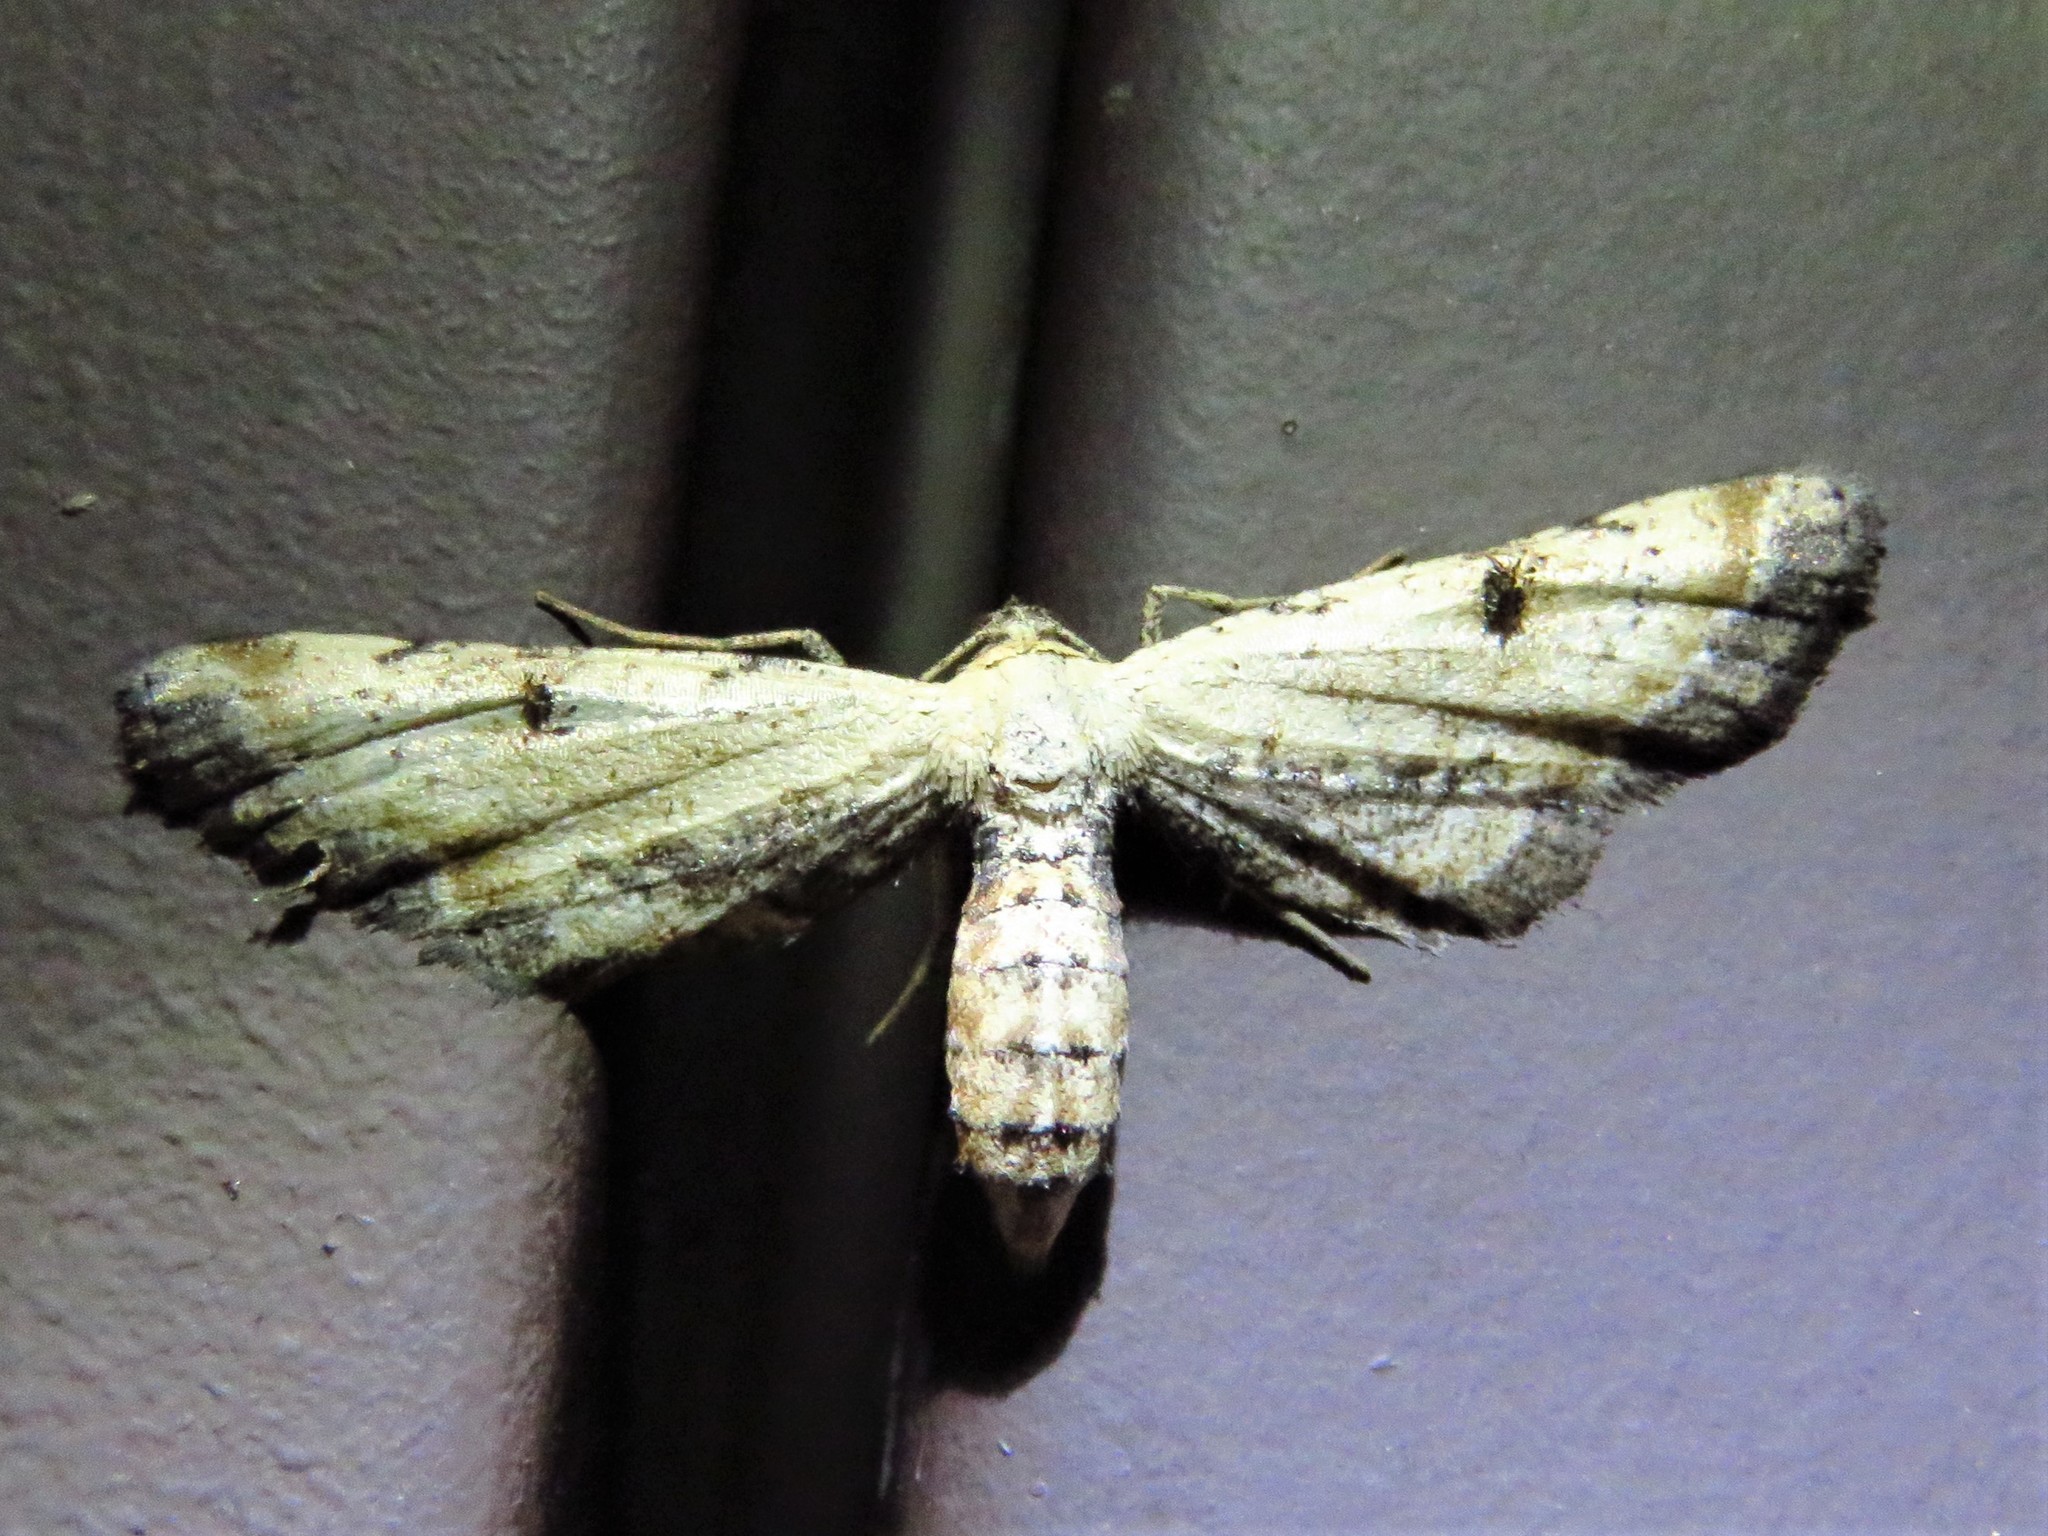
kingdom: Animalia
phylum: Arthropoda
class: Insecta
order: Lepidoptera
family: Geometridae
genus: Tornos
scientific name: Tornos scolopacinaria
